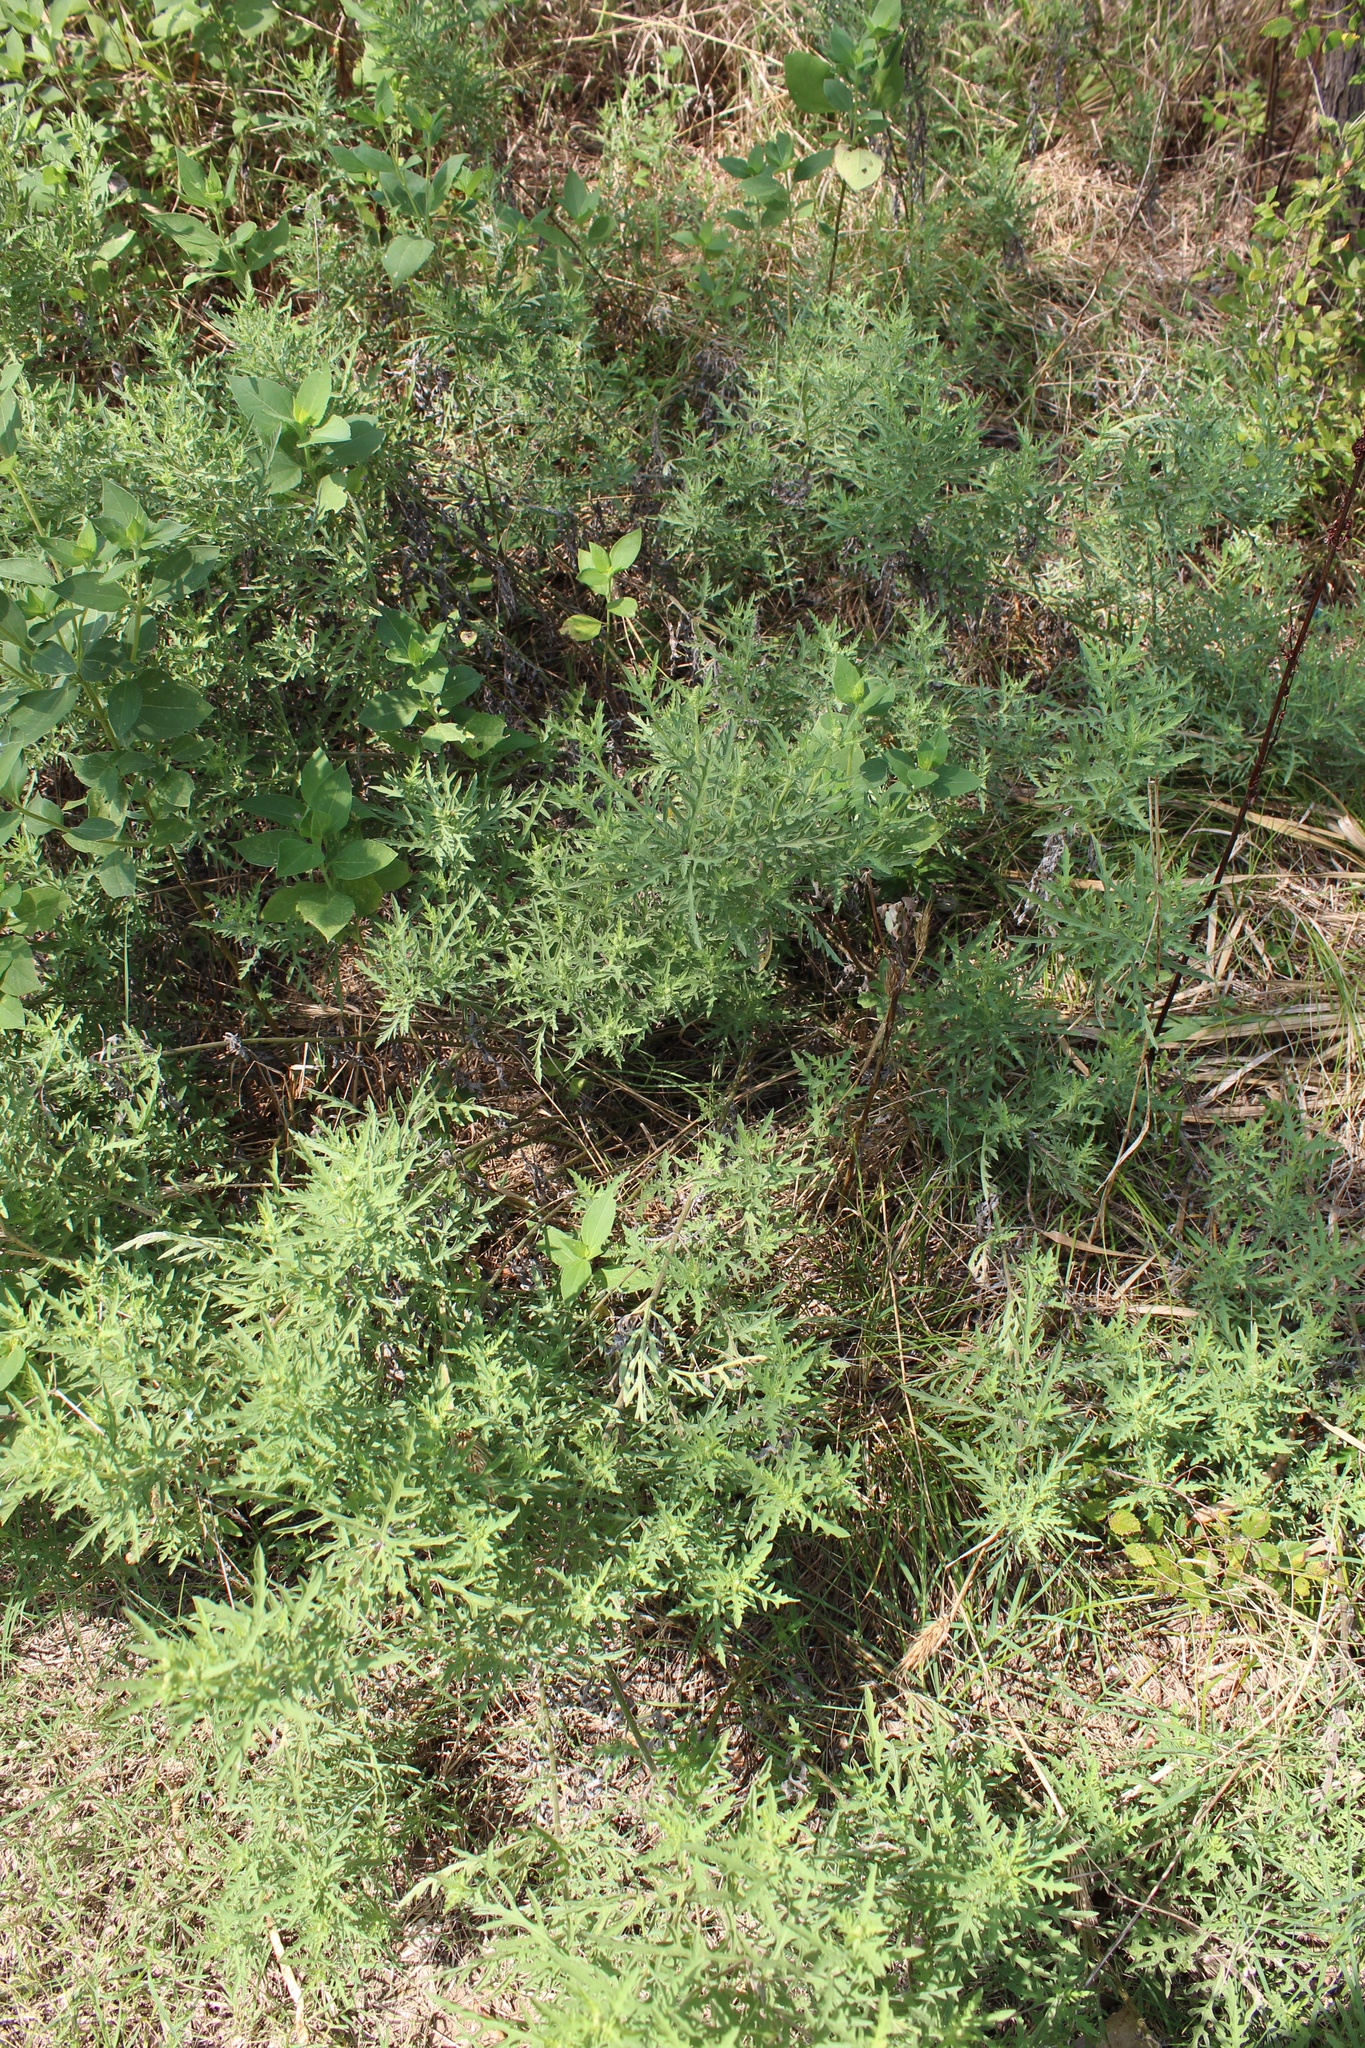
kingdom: Plantae
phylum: Tracheophyta
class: Magnoliopsida
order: Asterales
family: Asteraceae
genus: Ambrosia
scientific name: Ambrosia psilostachya
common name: Perennial ragweed
